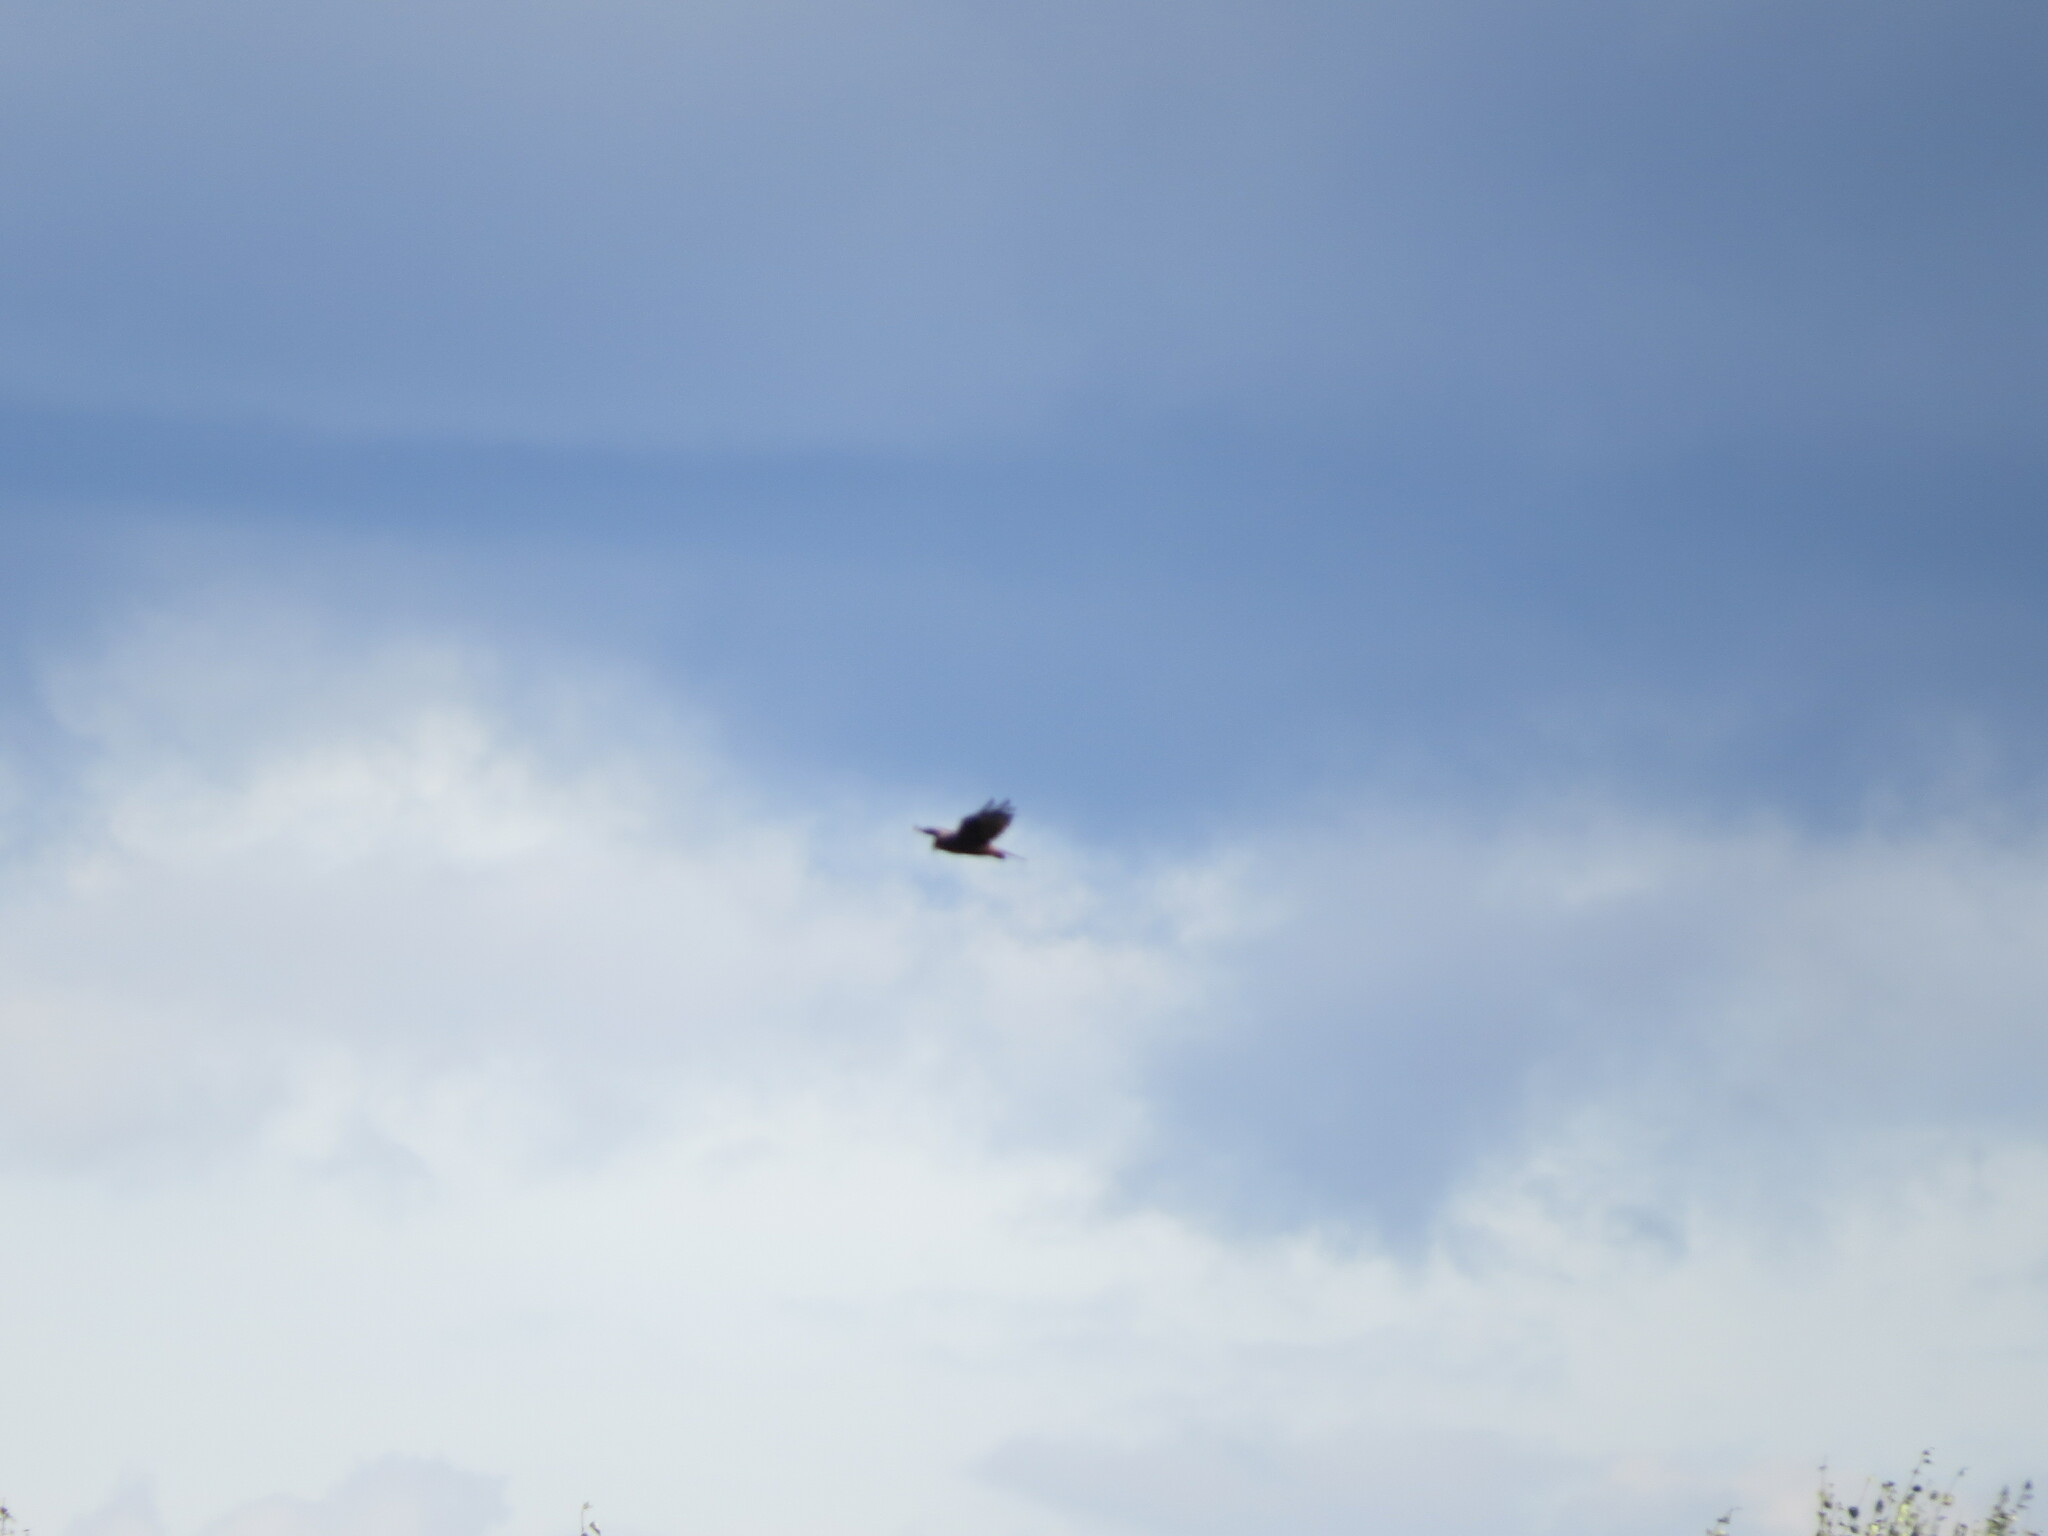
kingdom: Animalia
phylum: Chordata
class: Aves
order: Accipitriformes
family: Accipitridae
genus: Circus
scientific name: Circus aeruginosus
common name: Western marsh harrier
